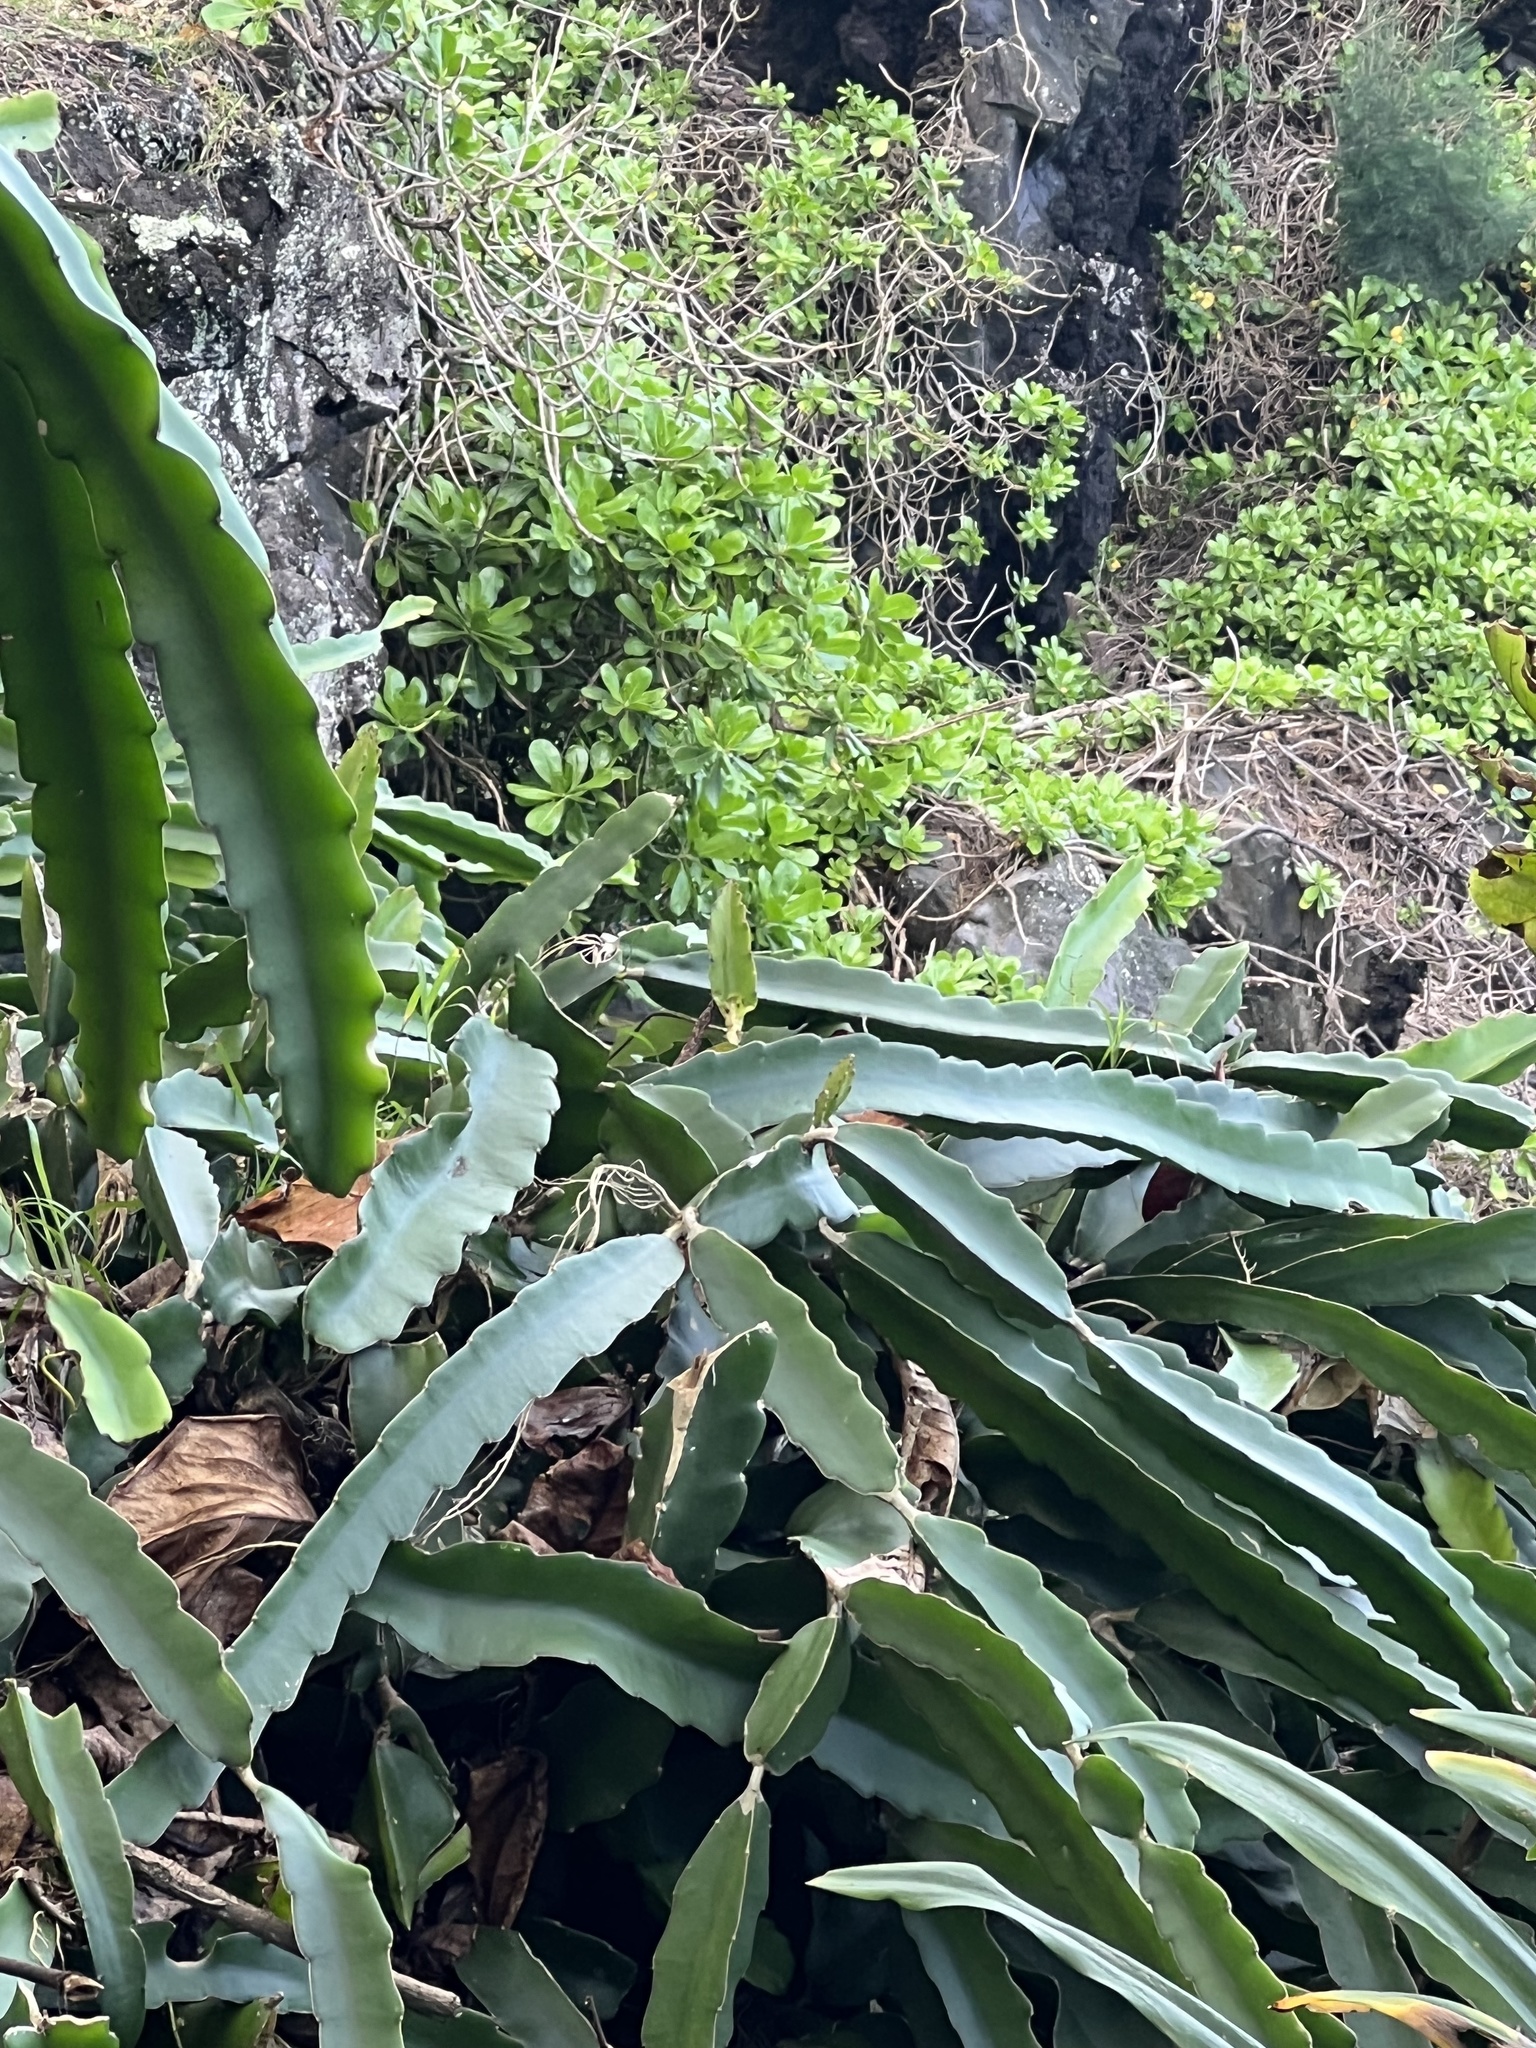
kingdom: Plantae
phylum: Tracheophyta
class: Magnoliopsida
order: Caryophyllales
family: Cactaceae
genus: Selenicereus
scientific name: Selenicereus undatus
